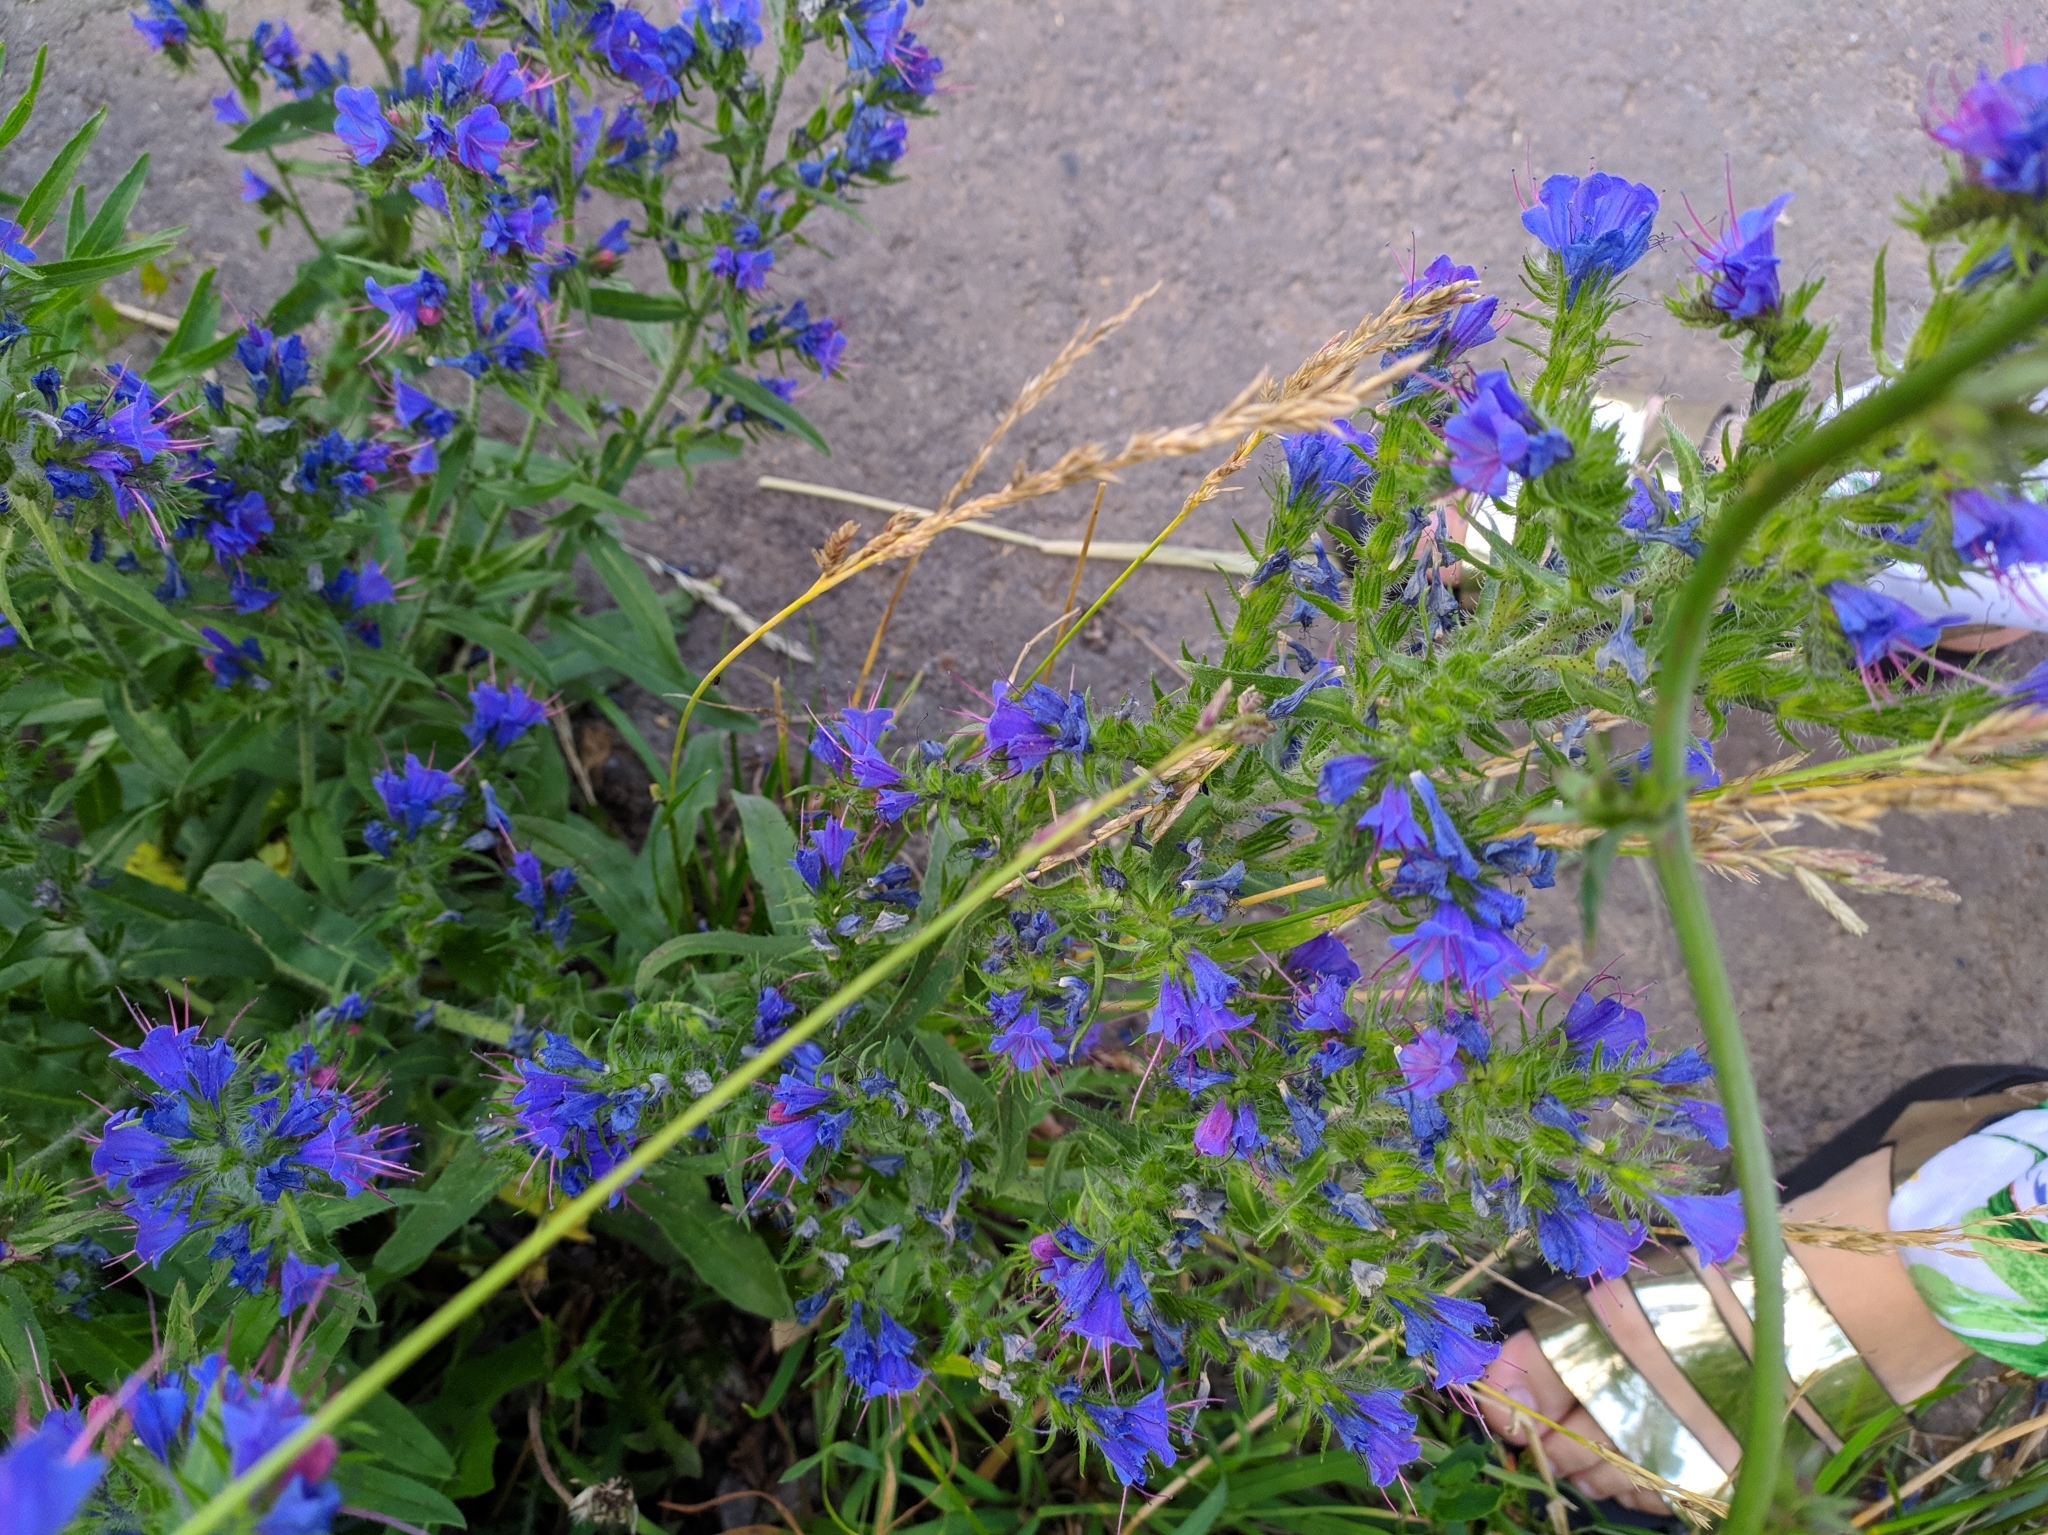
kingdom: Plantae
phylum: Tracheophyta
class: Magnoliopsida
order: Boraginales
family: Boraginaceae
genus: Echium
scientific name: Echium vulgare
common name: Common viper's bugloss
